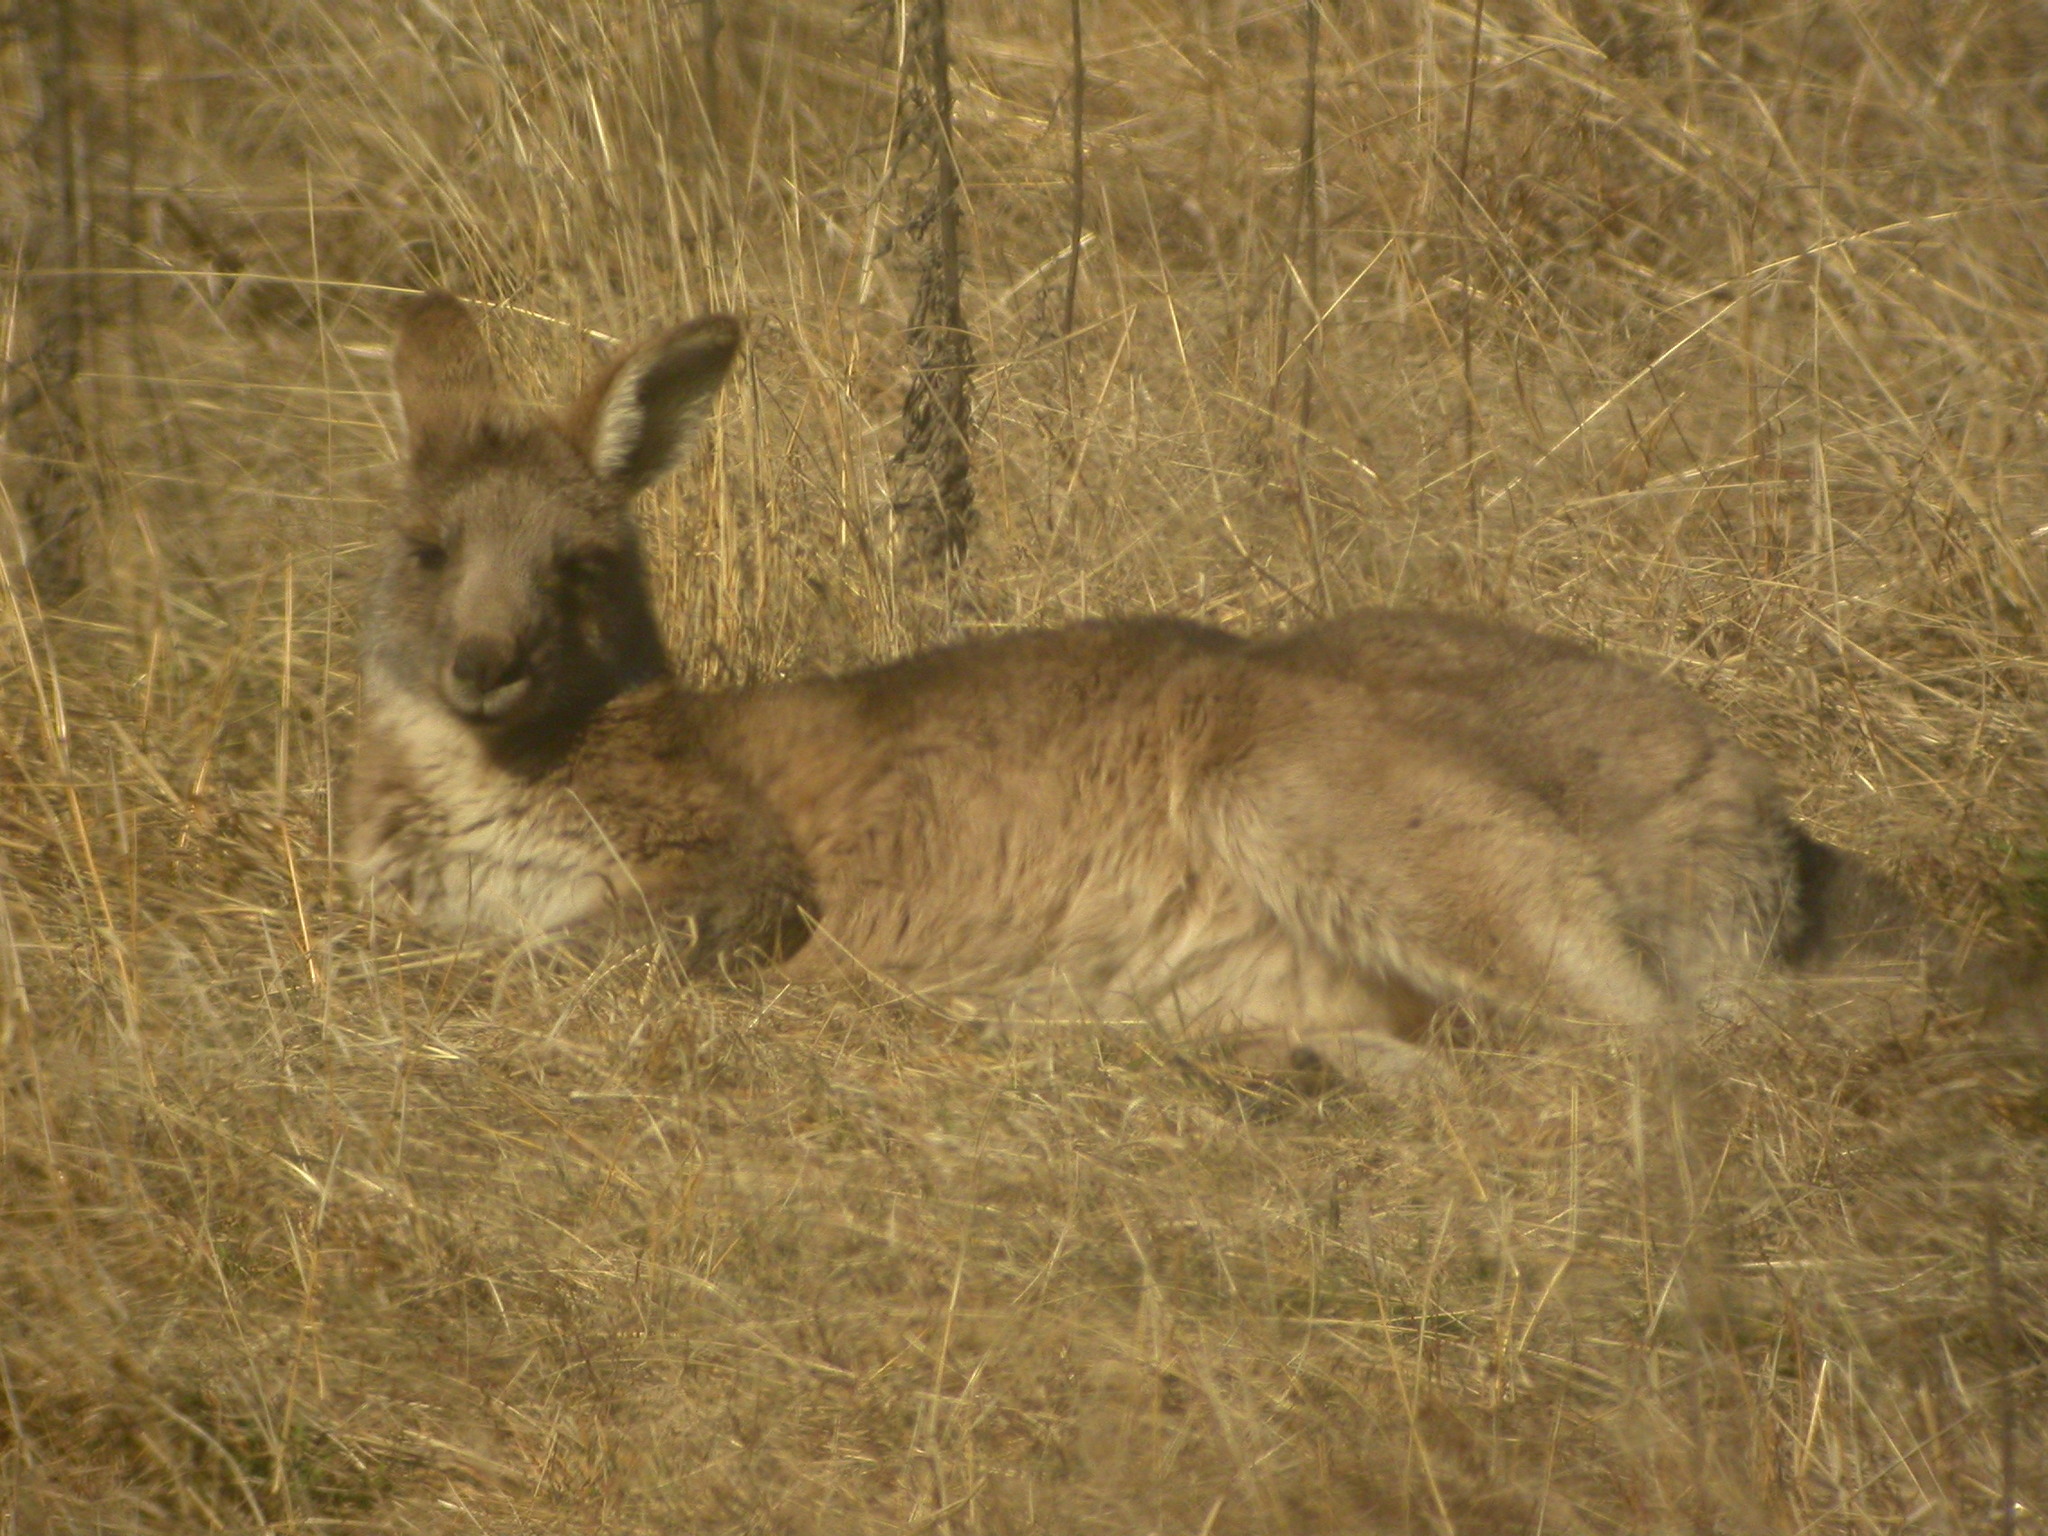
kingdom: Animalia
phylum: Chordata
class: Mammalia
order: Diprotodontia
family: Macropodidae
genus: Macropus
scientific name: Macropus giganteus
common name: Eastern grey kangaroo
